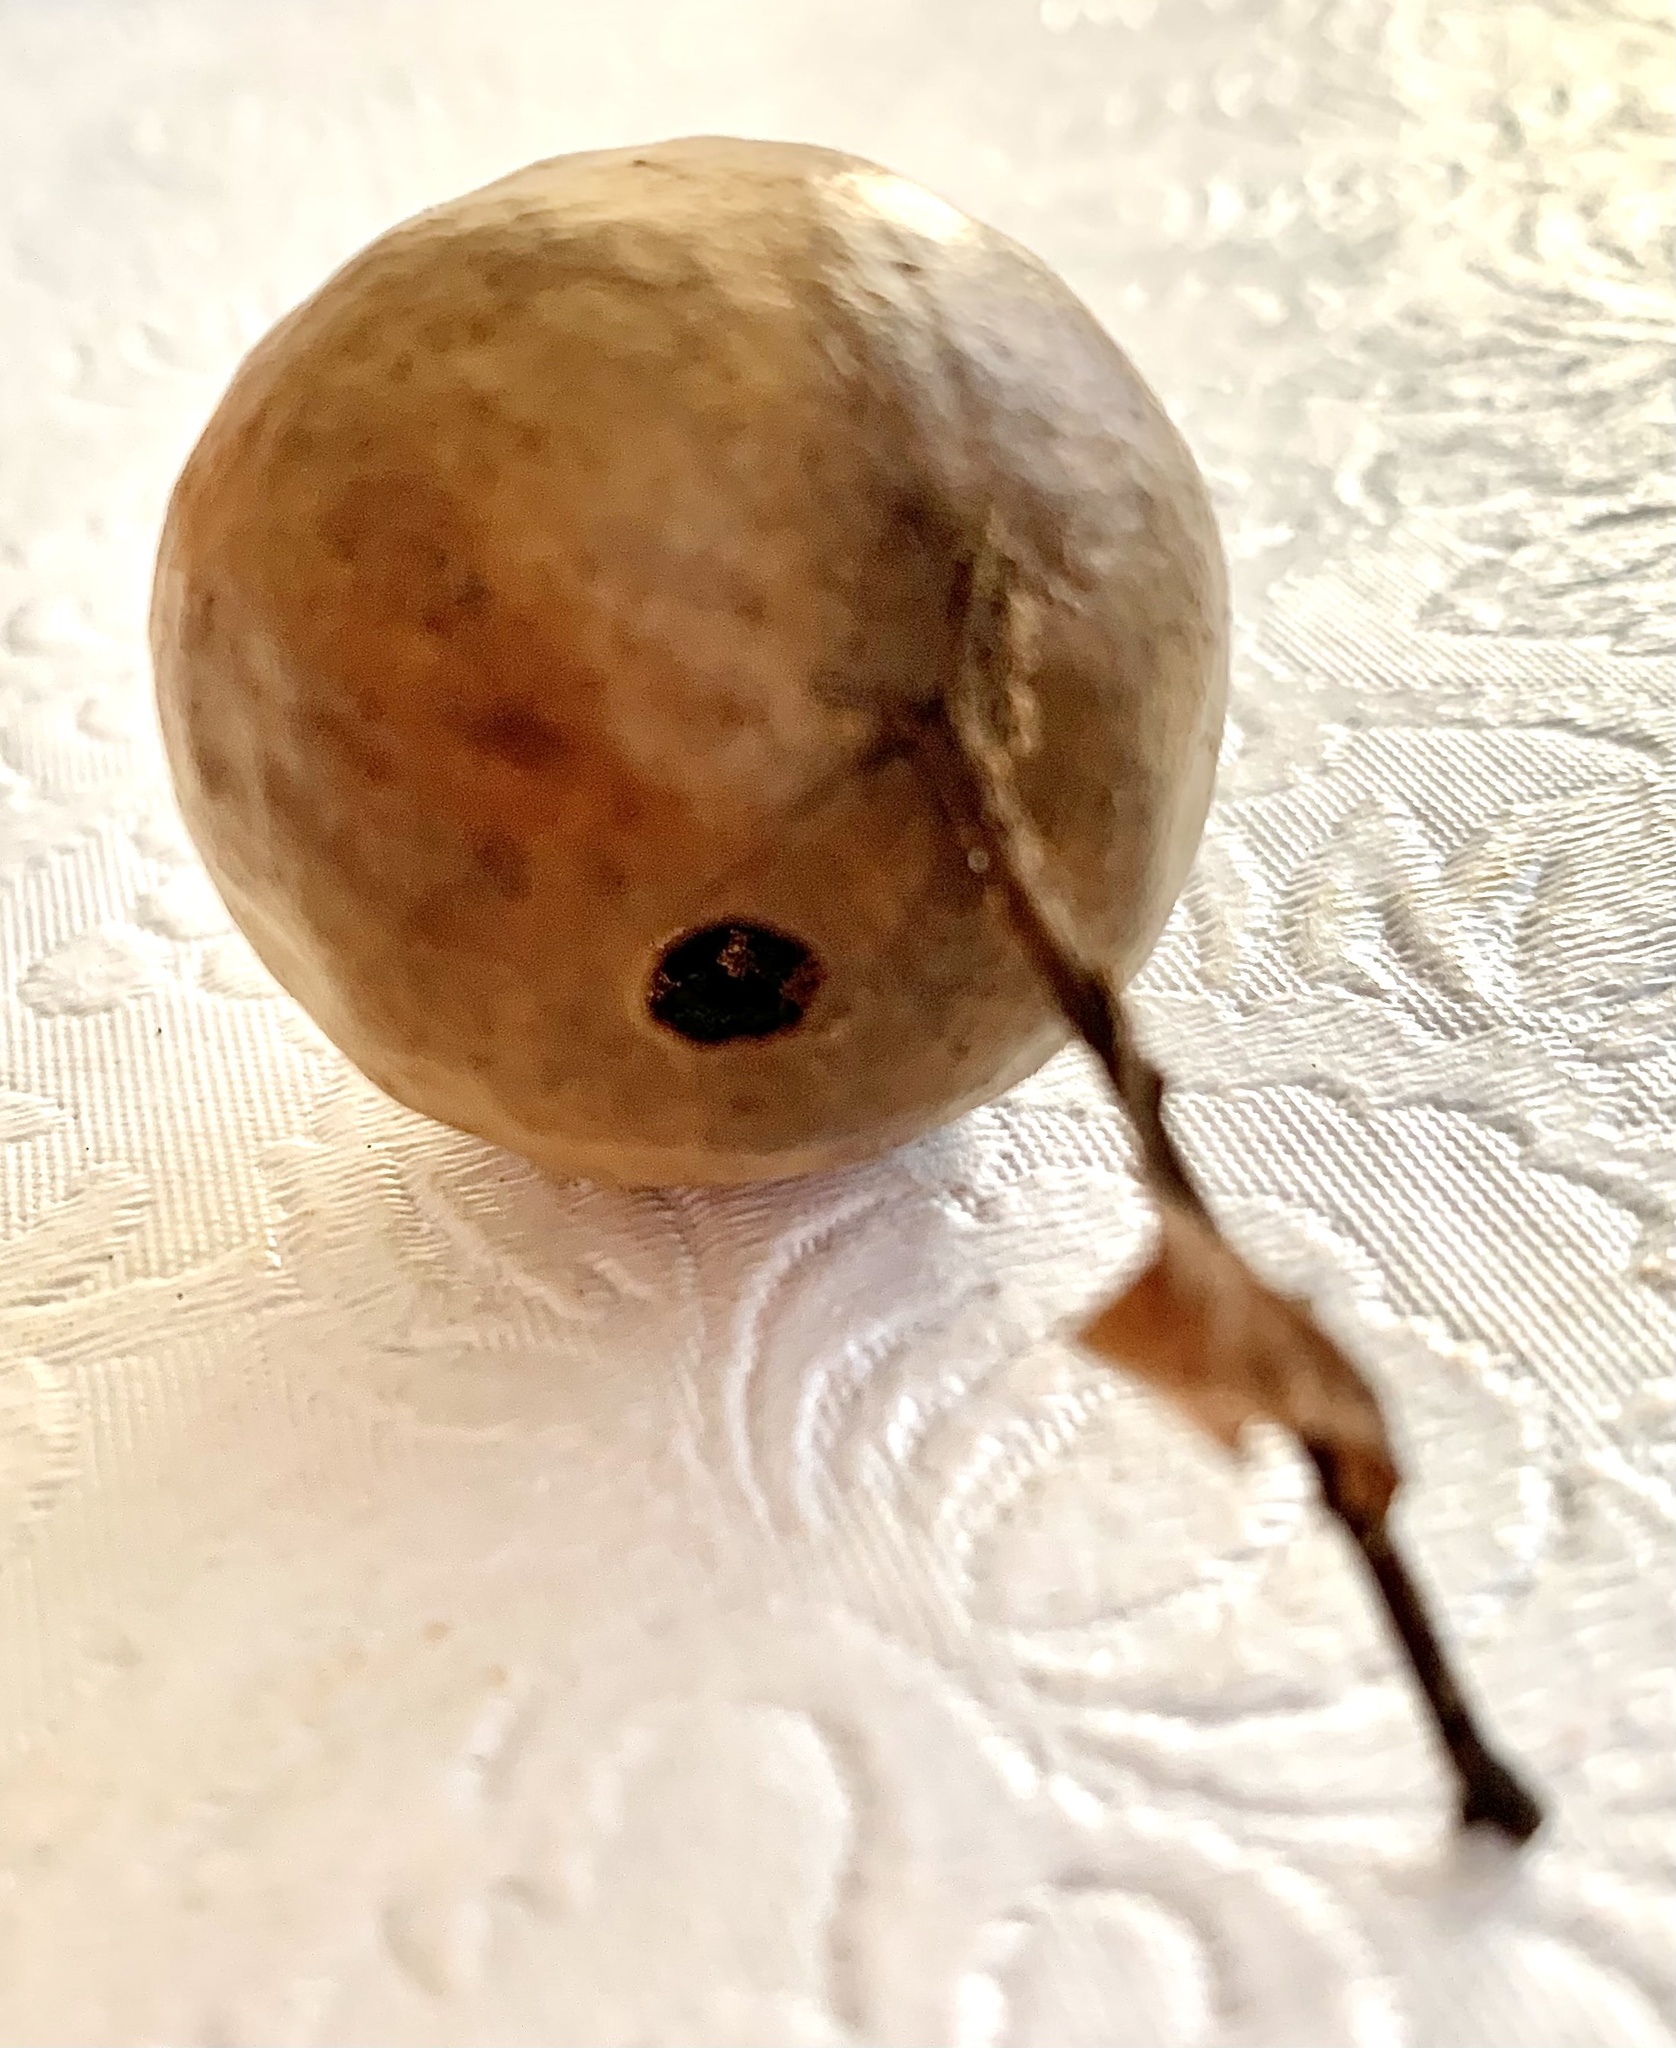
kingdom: Animalia
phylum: Arthropoda
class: Insecta
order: Hymenoptera
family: Cynipidae
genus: Amphibolips
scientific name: Amphibolips
